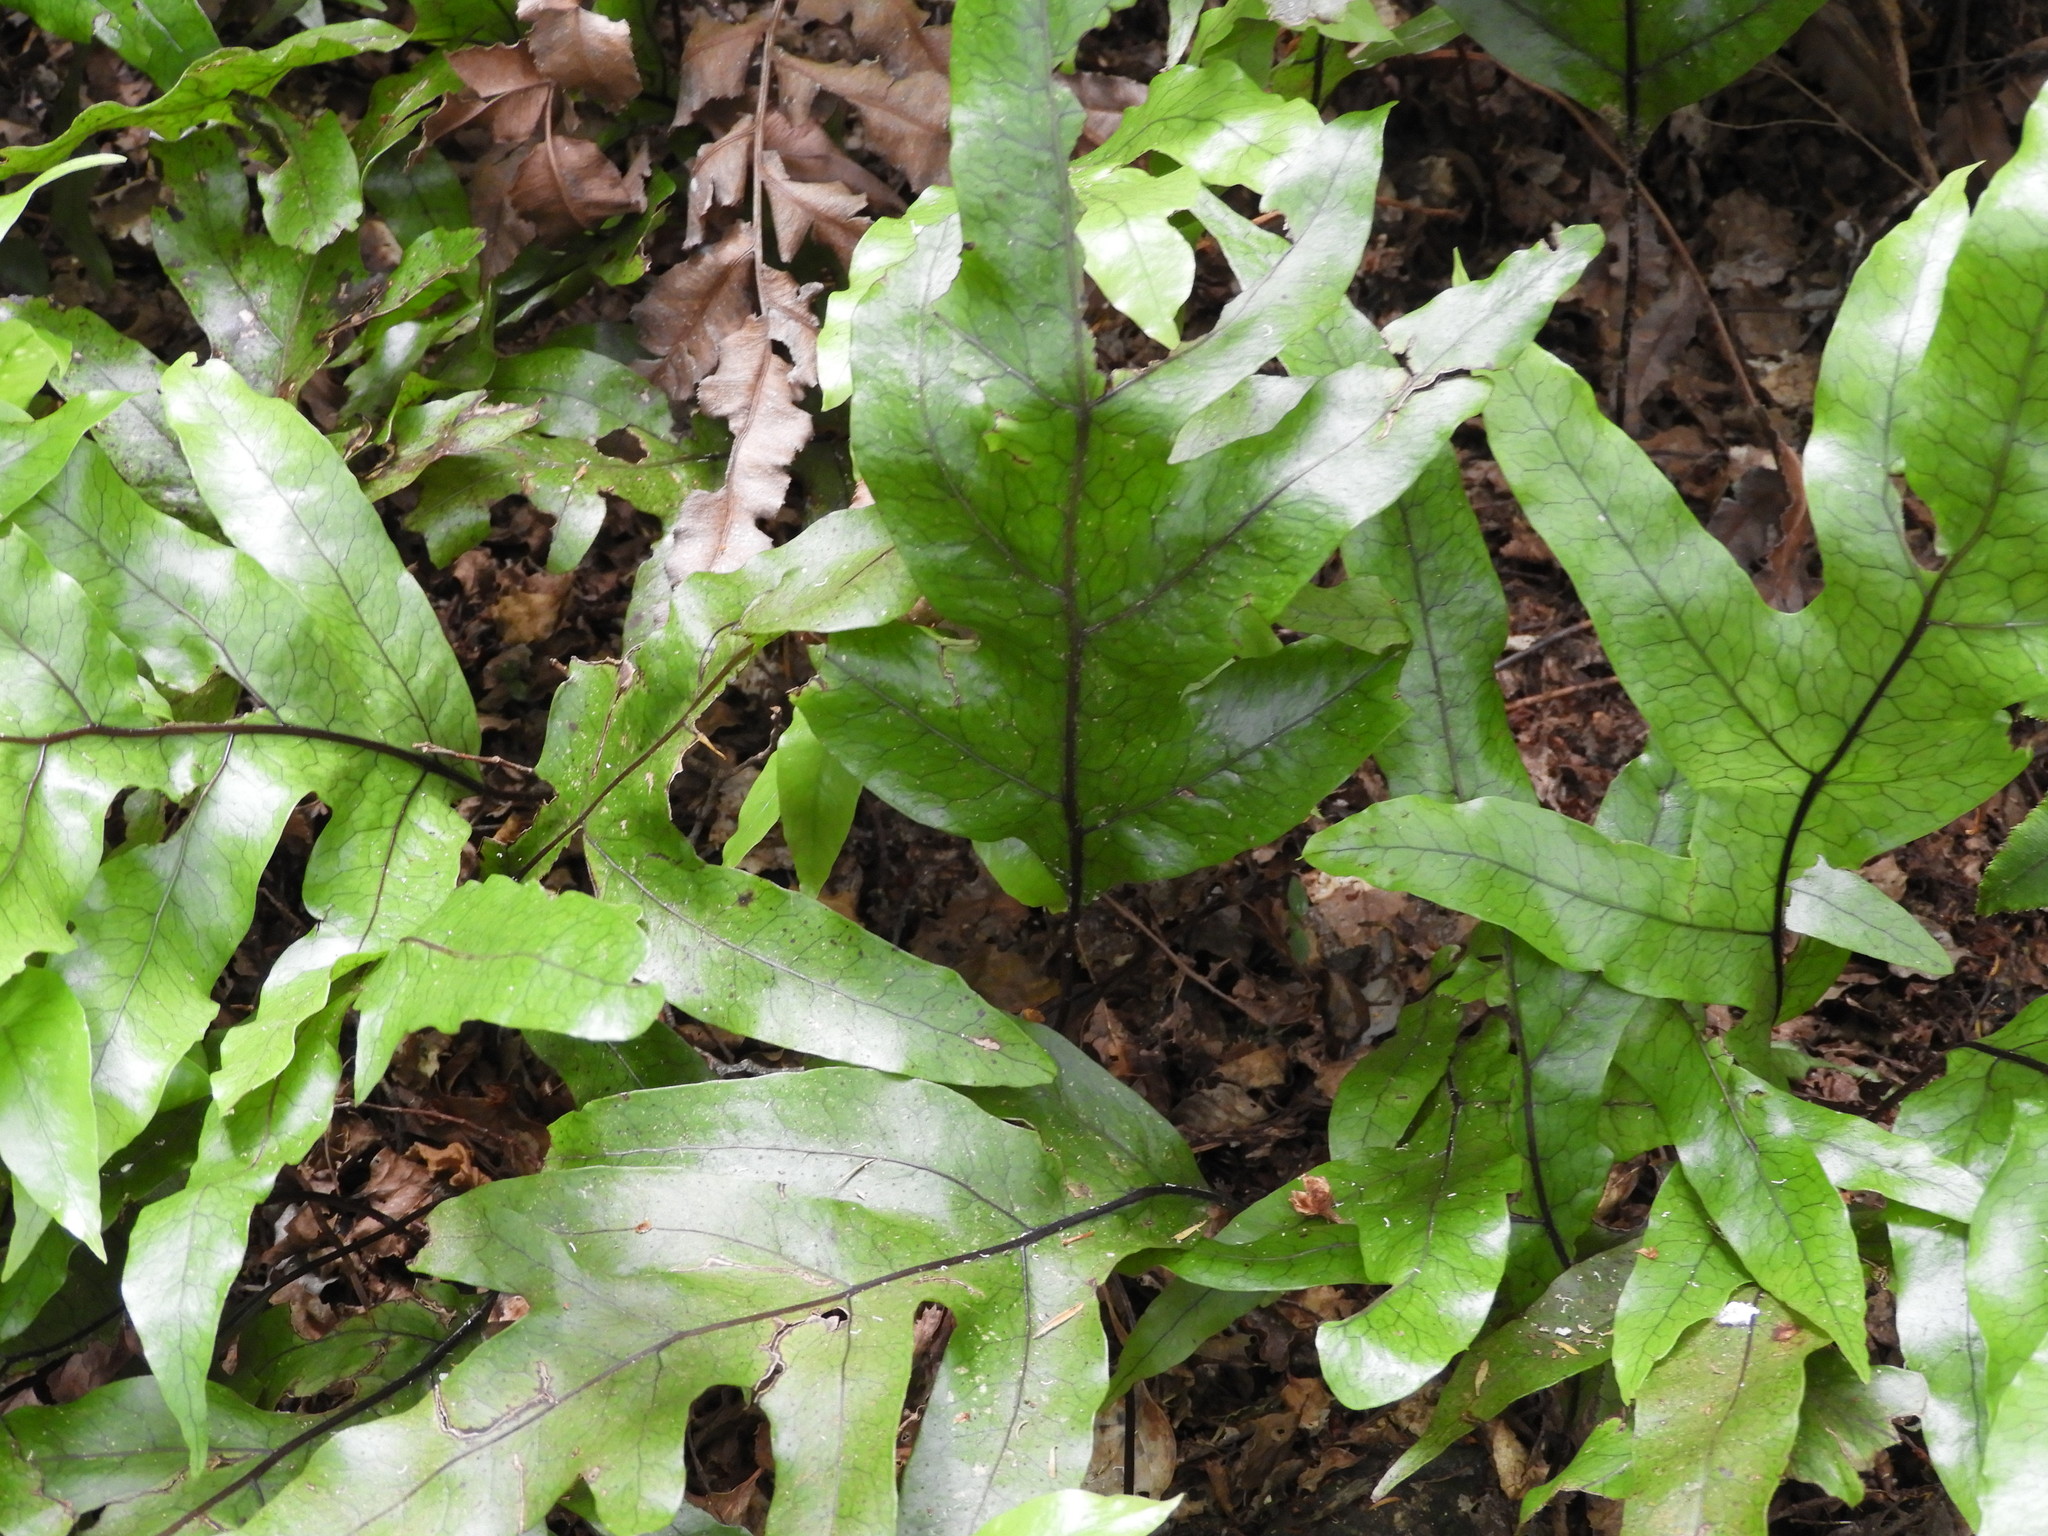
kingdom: Plantae
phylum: Tracheophyta
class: Polypodiopsida
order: Polypodiales
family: Polypodiaceae
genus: Lecanopteris
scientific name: Lecanopteris pustulata
